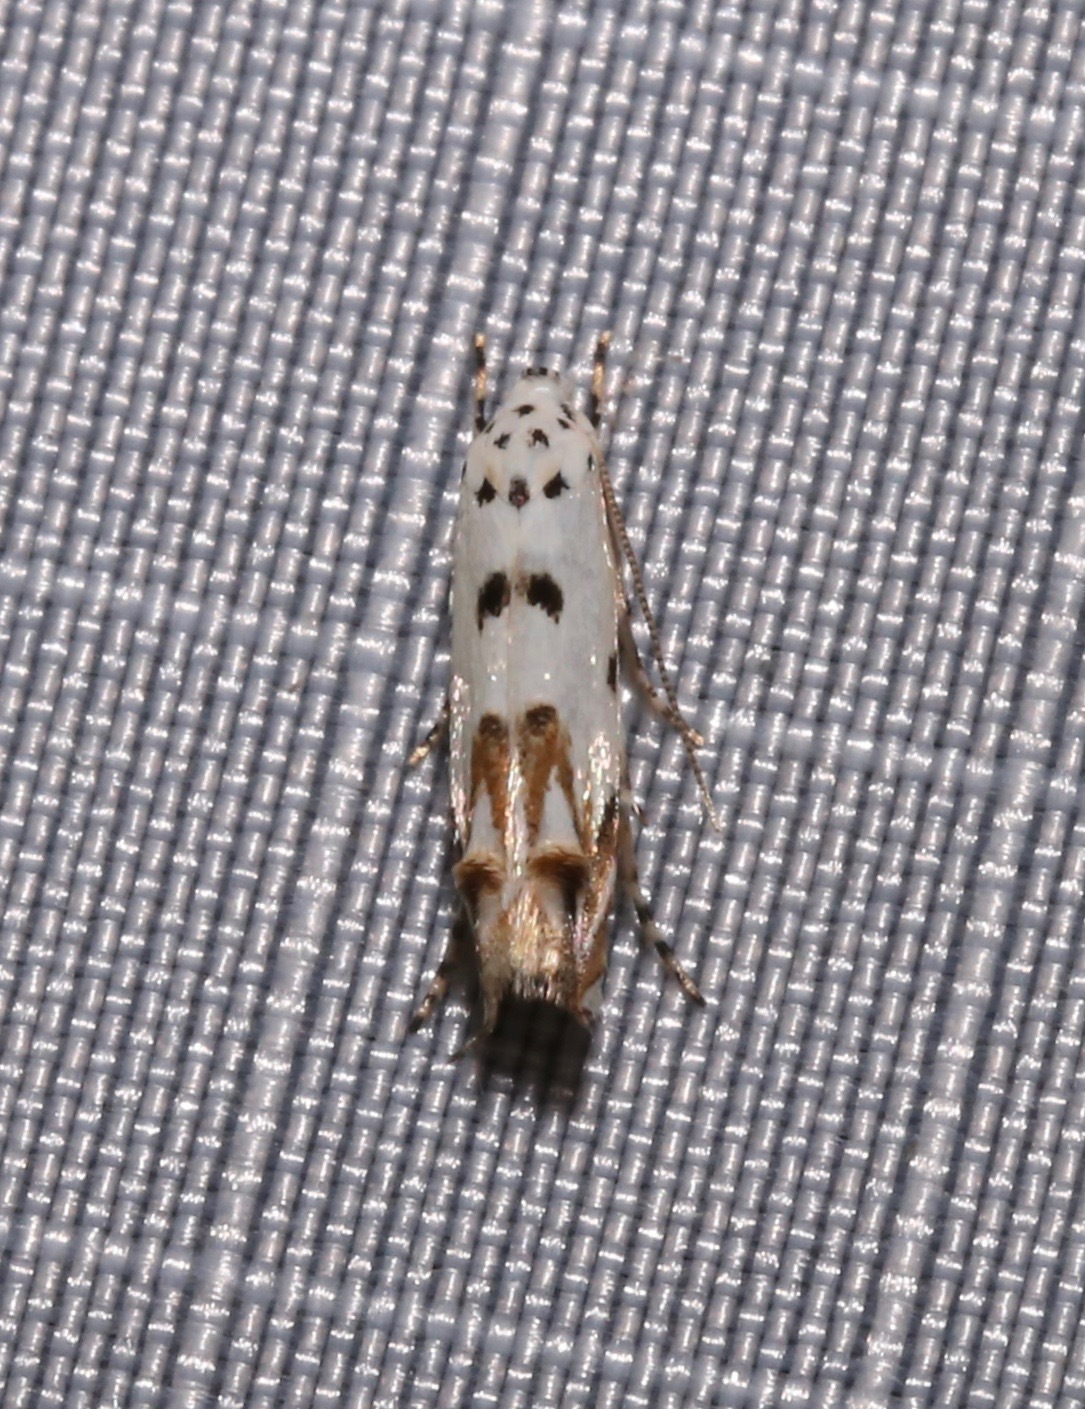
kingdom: Animalia
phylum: Arthropoda
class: Insecta
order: Lepidoptera
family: Momphidae
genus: Mompha
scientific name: Mompha eloisella
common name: Red-streaked mompha moth
